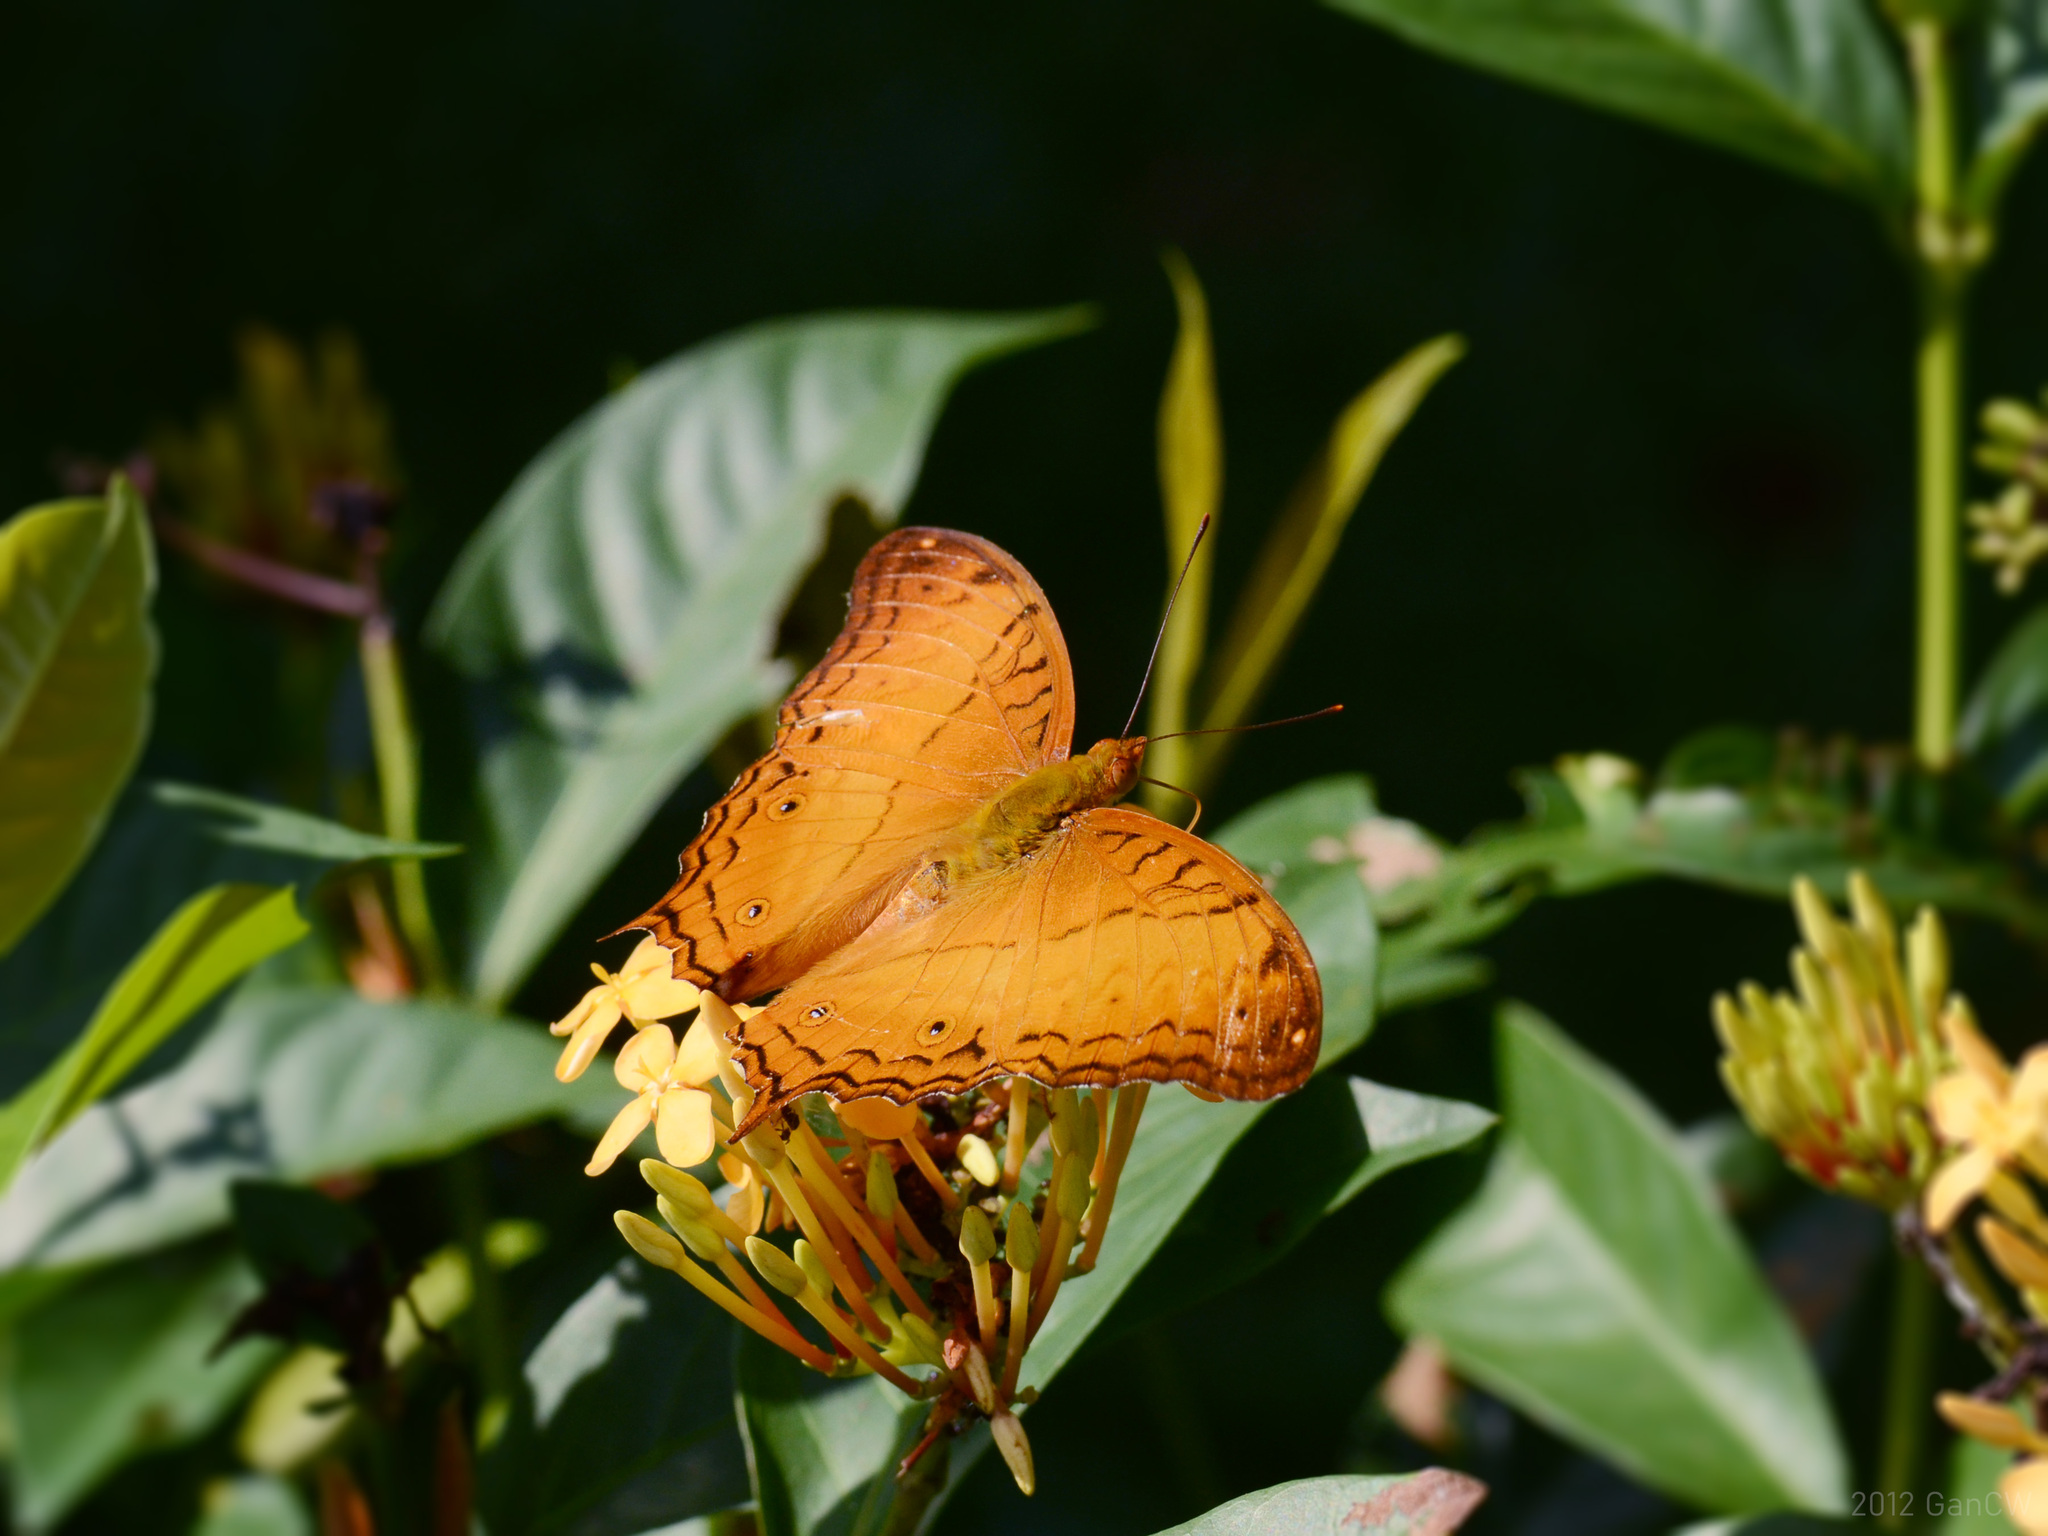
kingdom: Animalia
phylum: Arthropoda
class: Insecta
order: Lepidoptera
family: Nymphalidae
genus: Vindula
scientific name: Vindula deione
